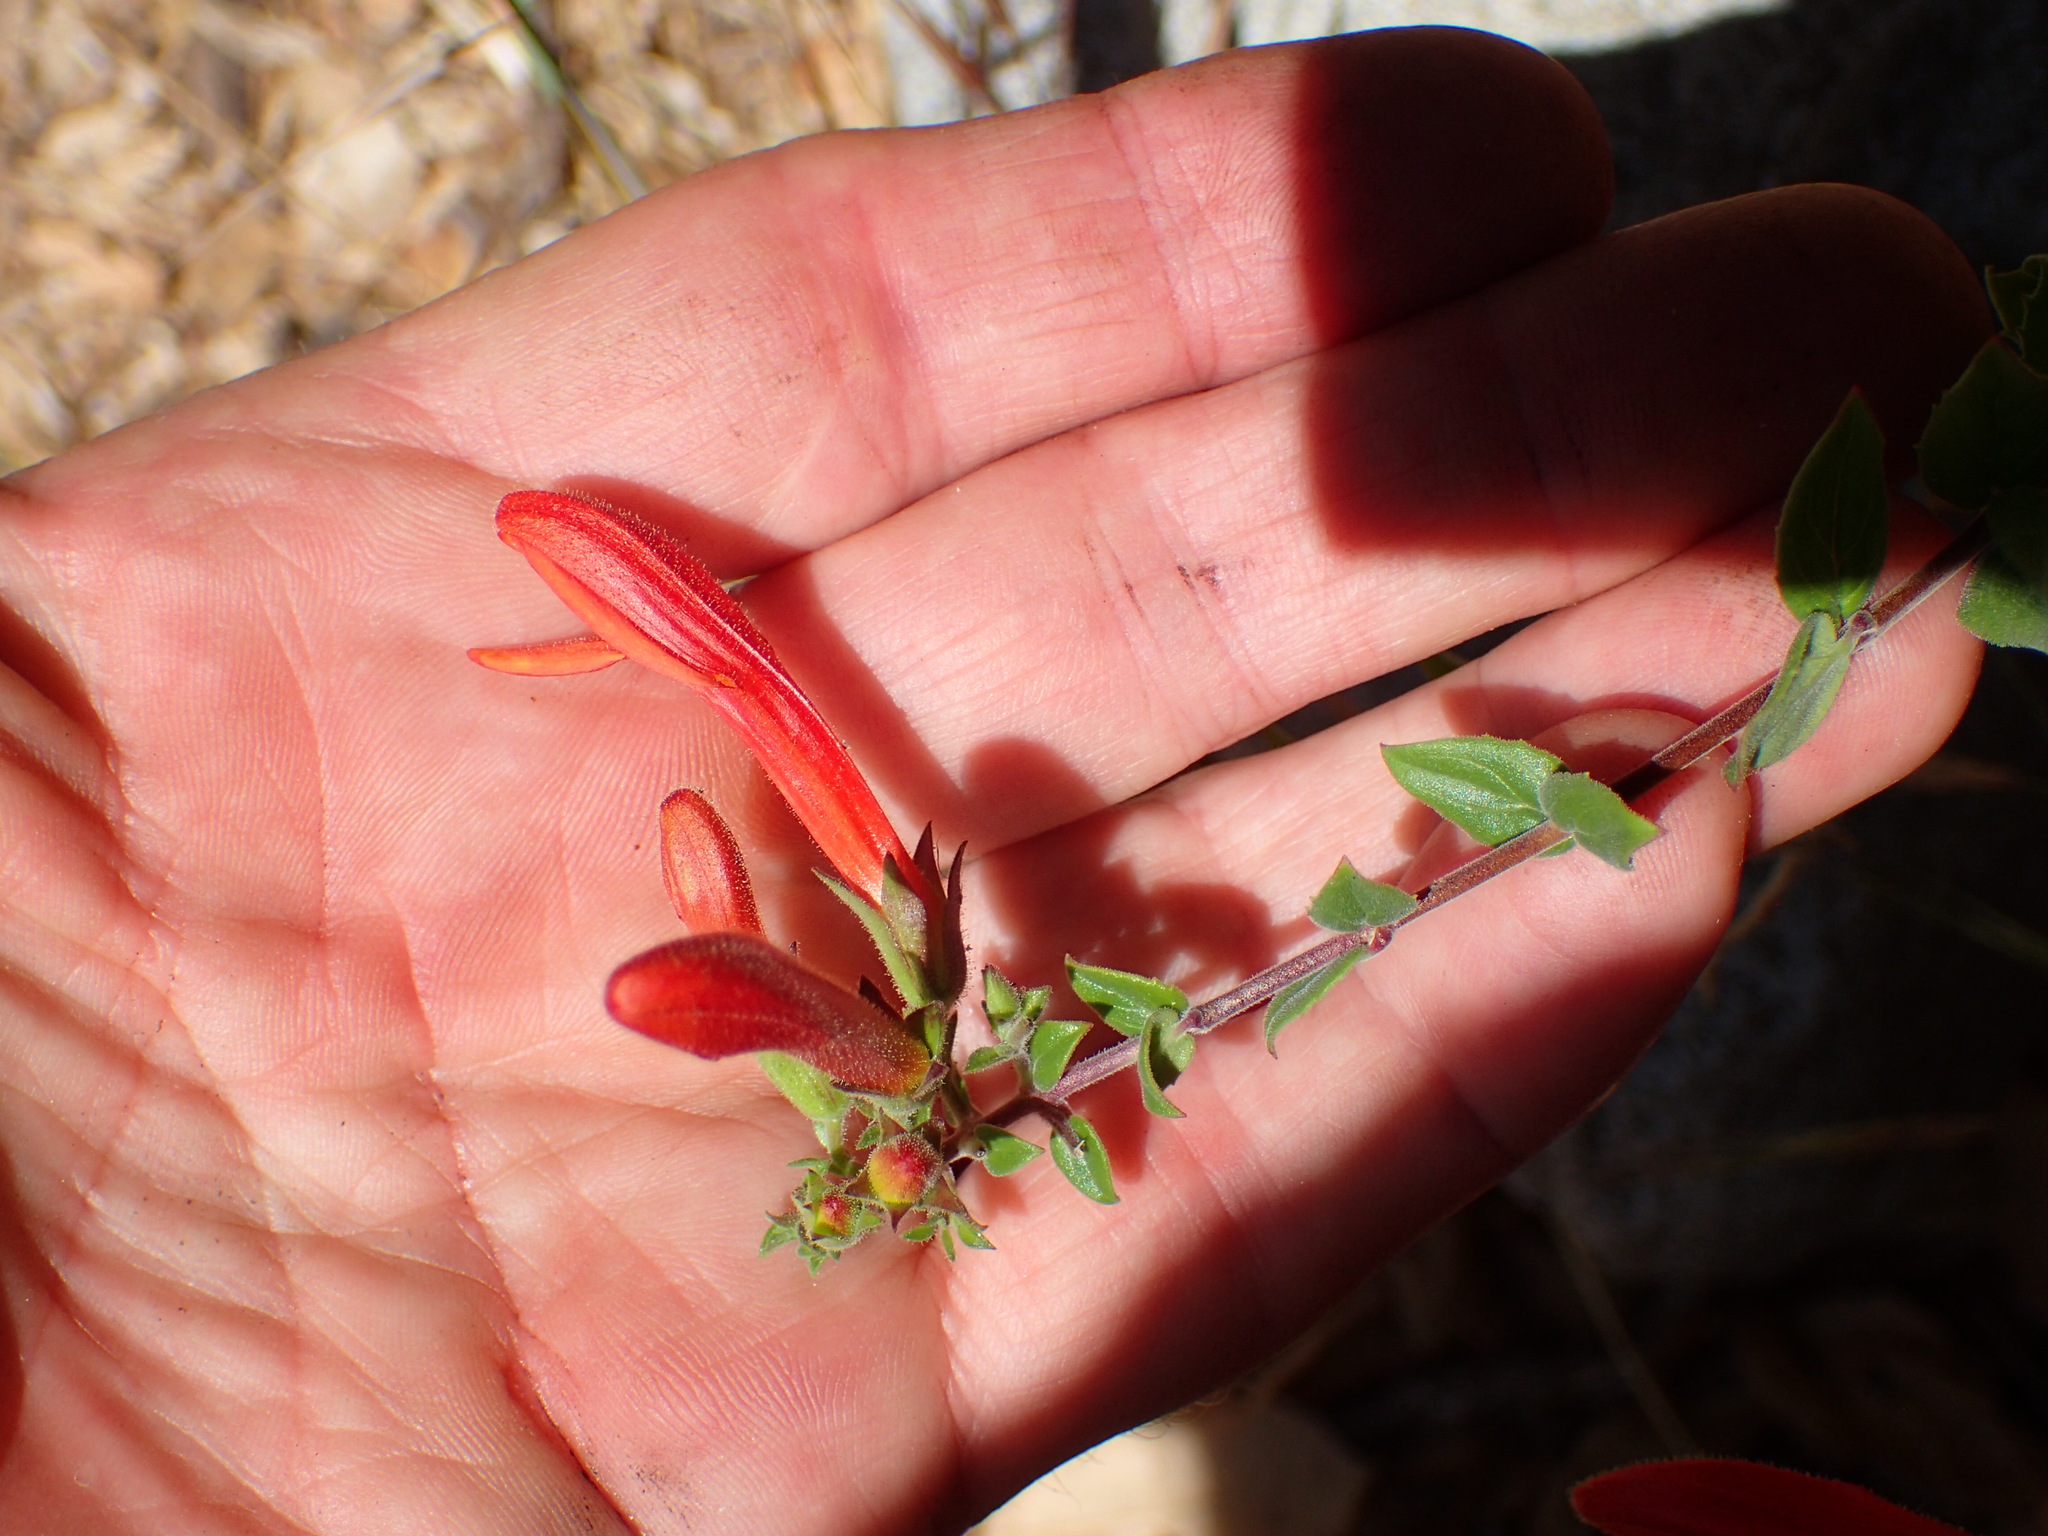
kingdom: Plantae
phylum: Tracheophyta
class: Magnoliopsida
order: Lamiales
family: Plantaginaceae
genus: Keckiella
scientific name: Keckiella cordifolia
